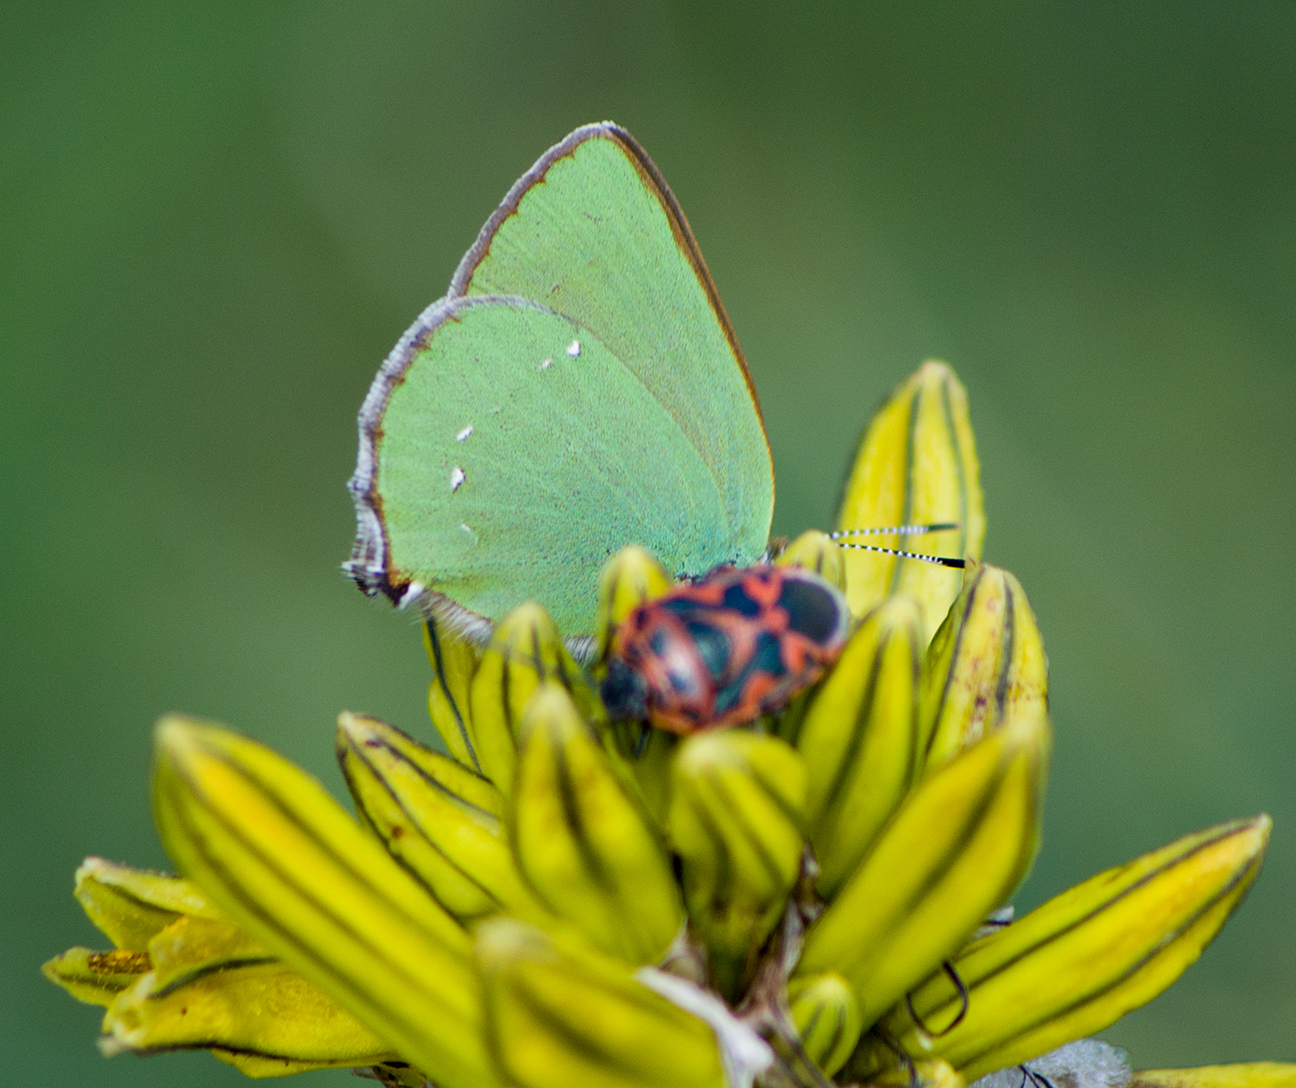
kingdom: Animalia
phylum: Arthropoda
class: Insecta
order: Lepidoptera
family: Lycaenidae
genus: Callophrys
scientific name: Callophrys rubi
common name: Green hairstreak
